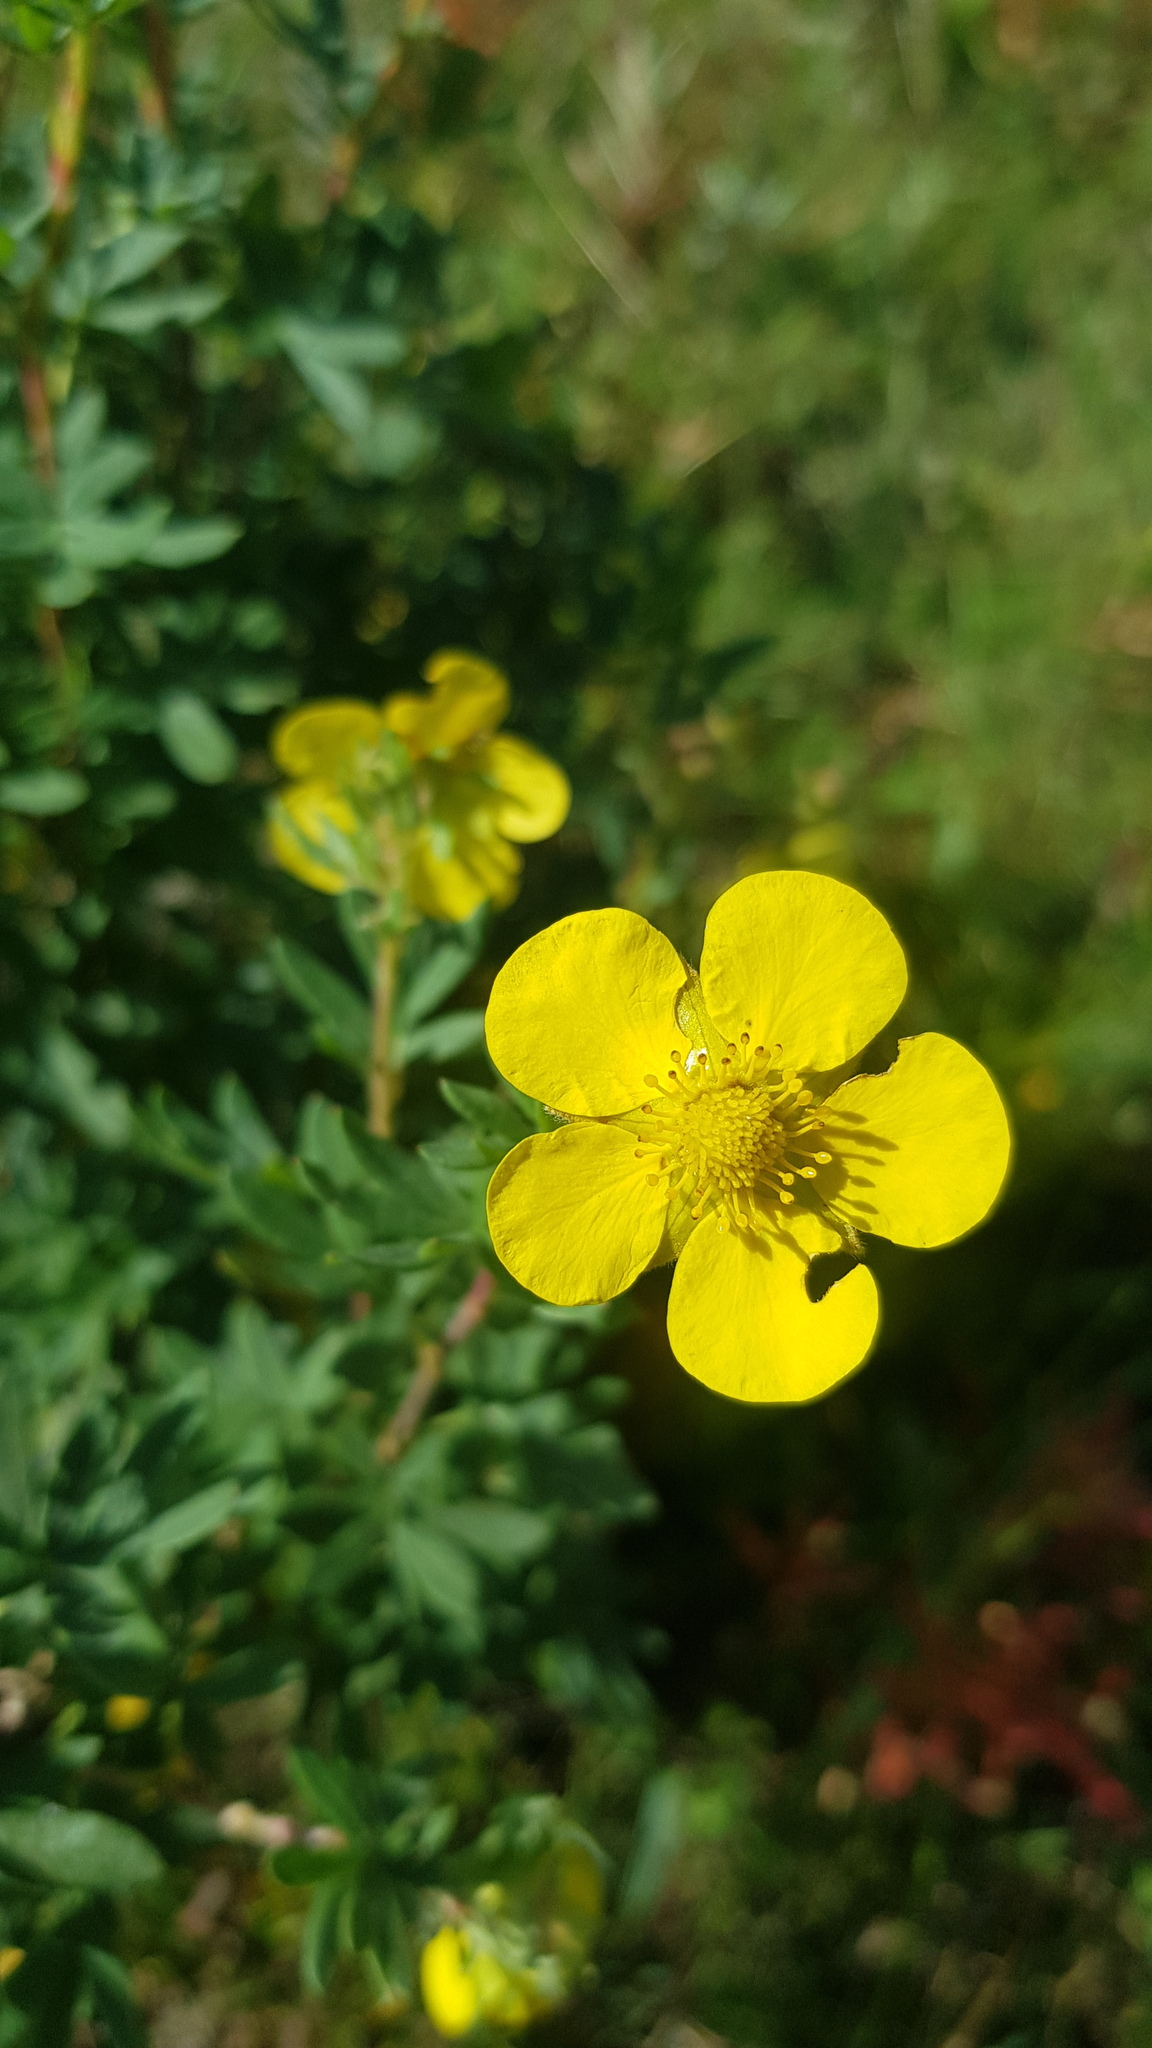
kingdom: Plantae
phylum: Tracheophyta
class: Magnoliopsida
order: Rosales
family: Rosaceae
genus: Dasiphora
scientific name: Dasiphora fruticosa
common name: Shrubby cinquefoil
